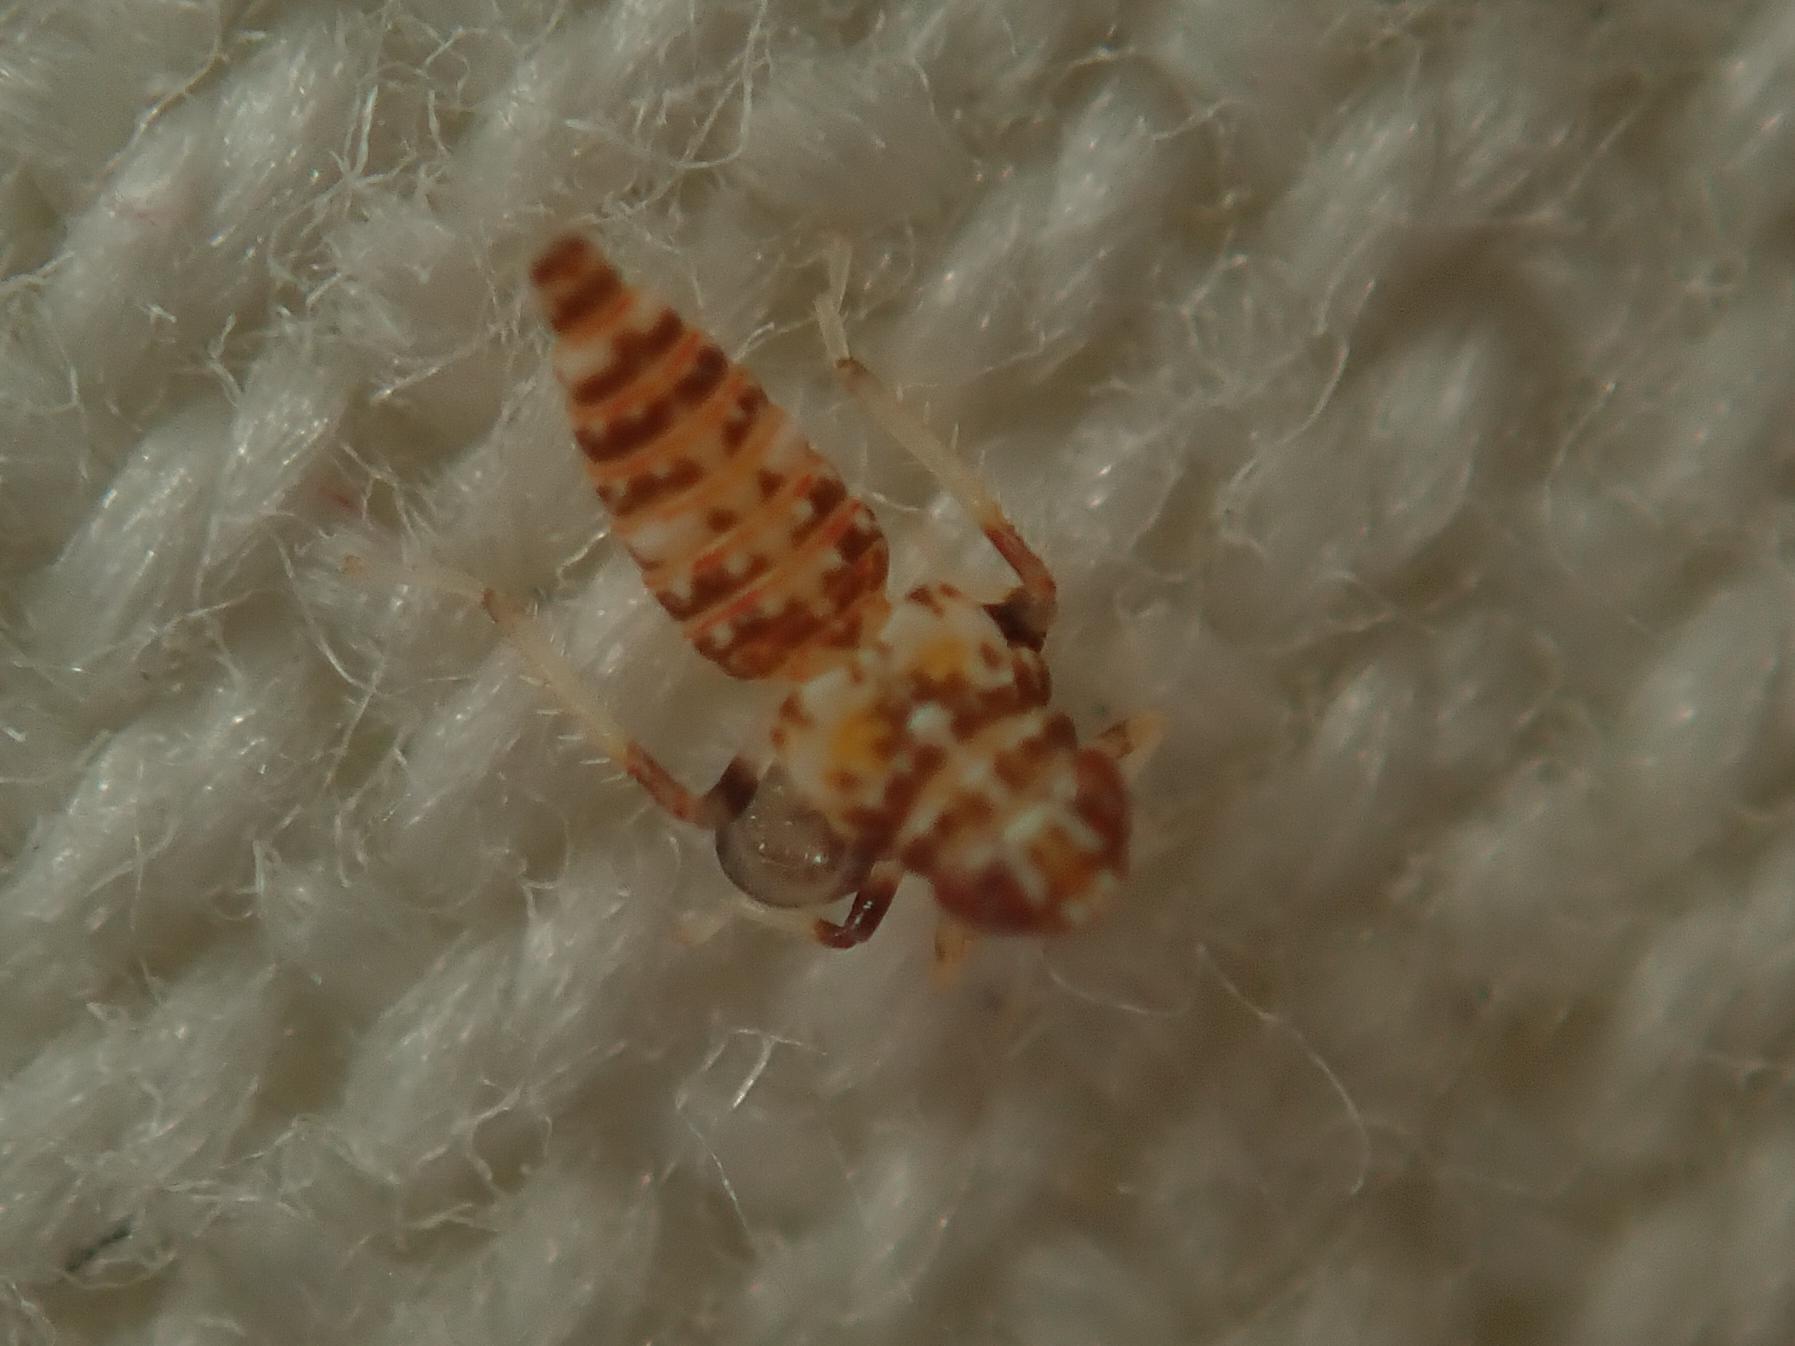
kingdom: Animalia
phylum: Arthropoda
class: Insecta
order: Hemiptera
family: Cicadellidae
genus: Orientus
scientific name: Orientus ishidae
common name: Japanese leafhopper
